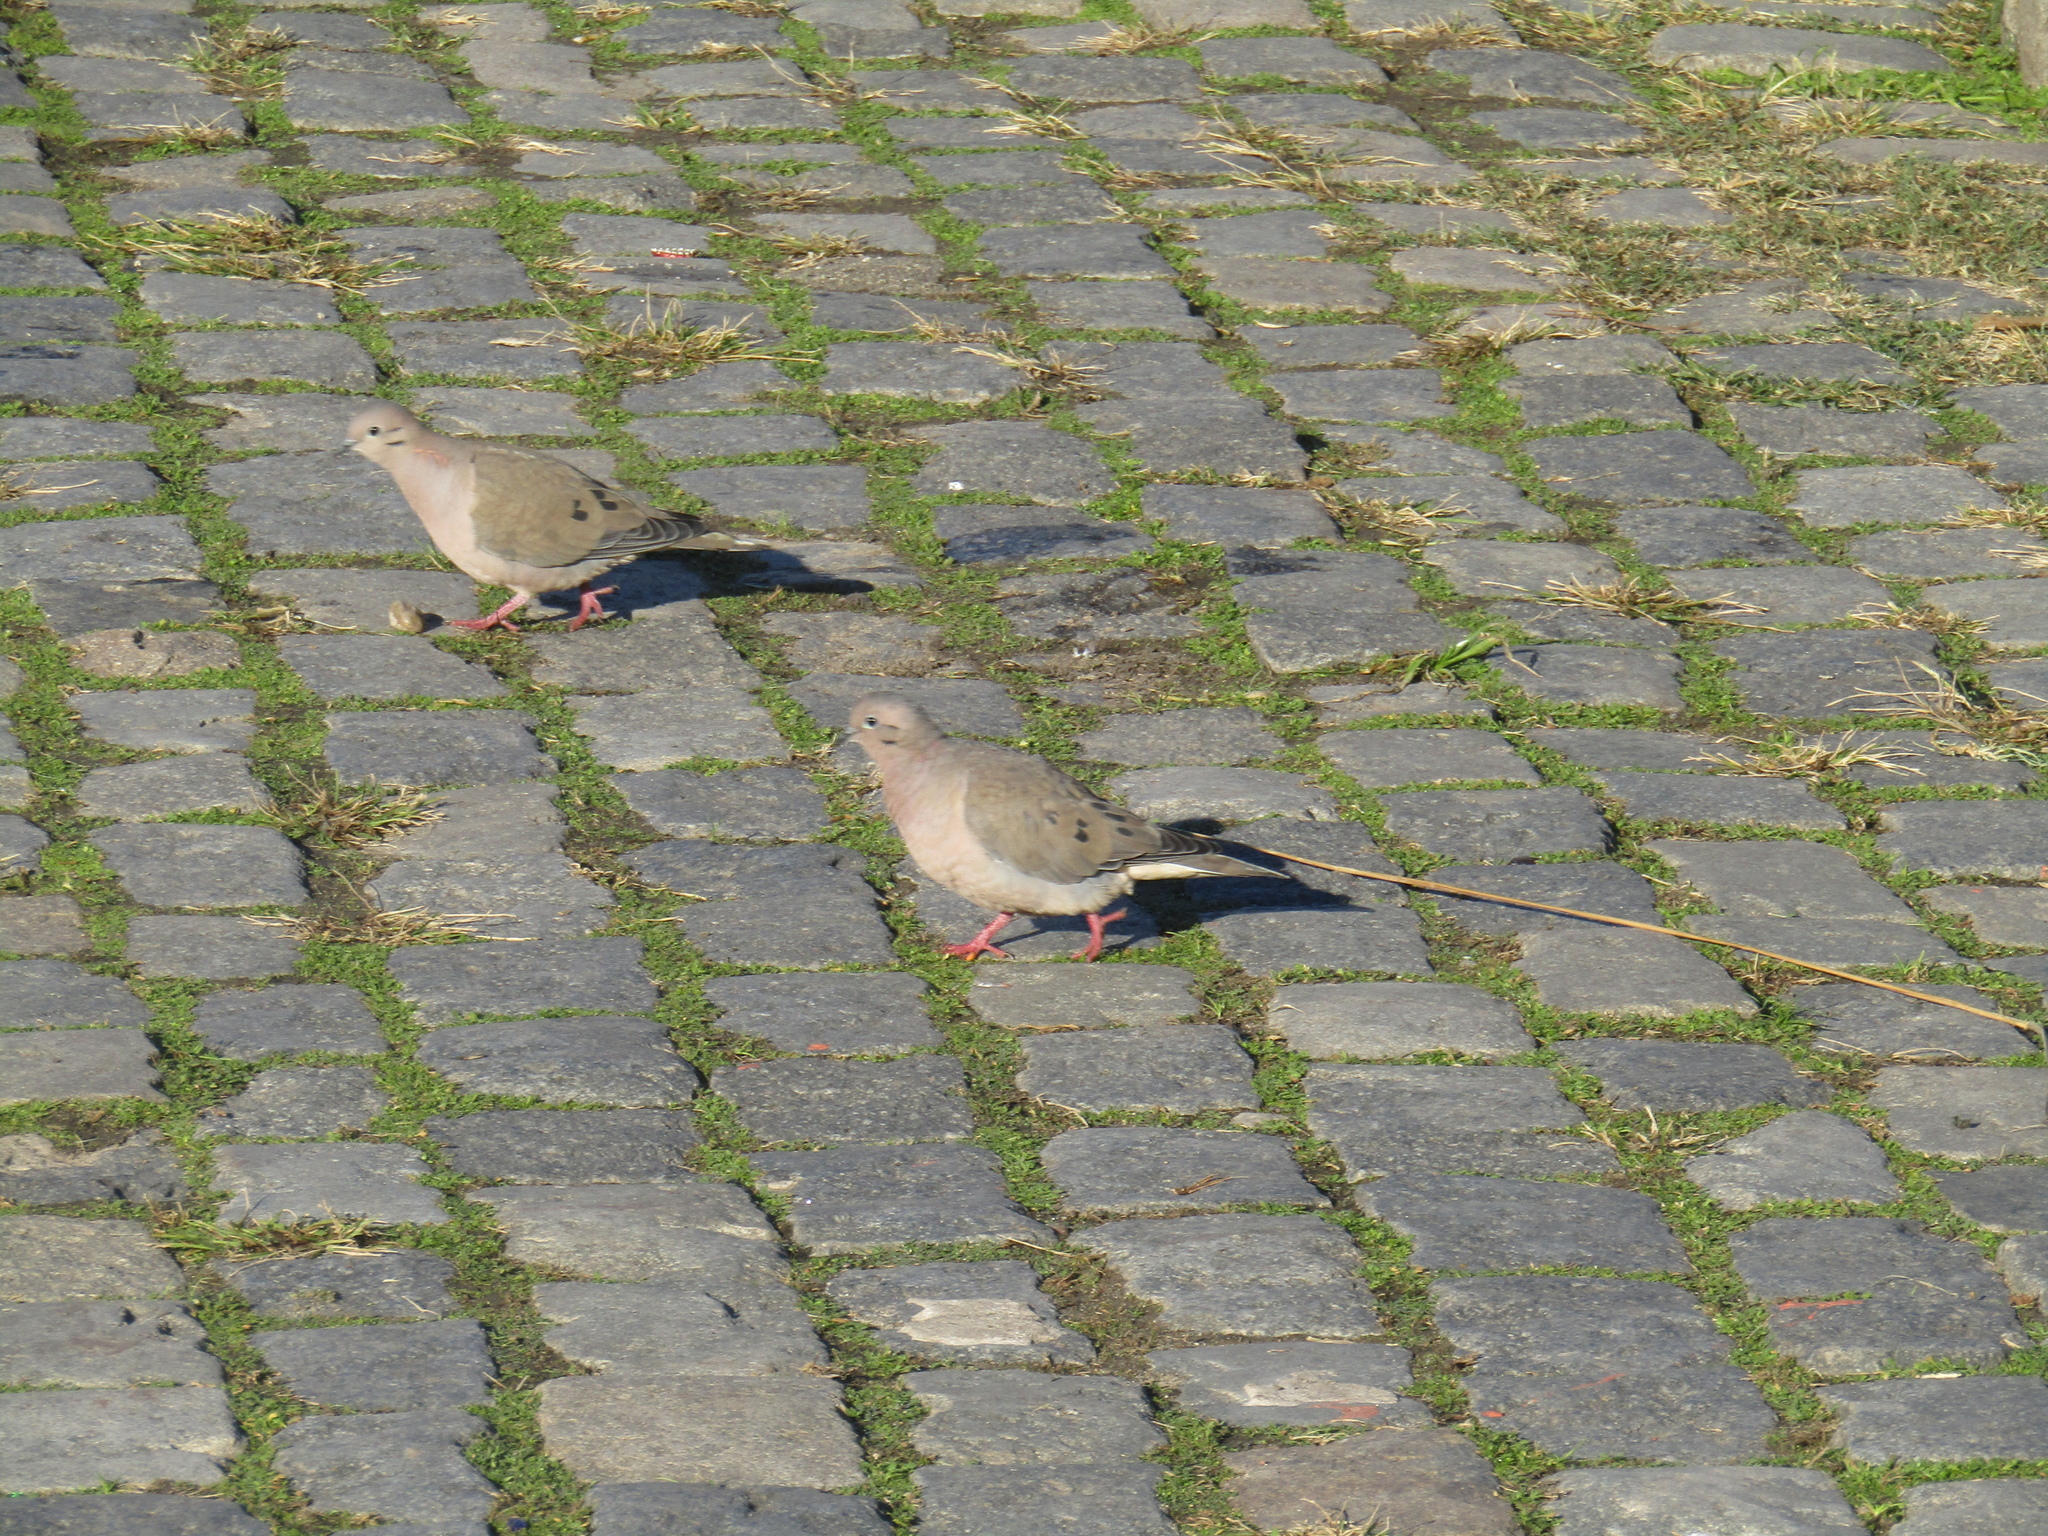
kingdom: Animalia
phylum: Chordata
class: Aves
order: Columbiformes
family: Columbidae
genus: Zenaida
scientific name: Zenaida auriculata
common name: Eared dove
